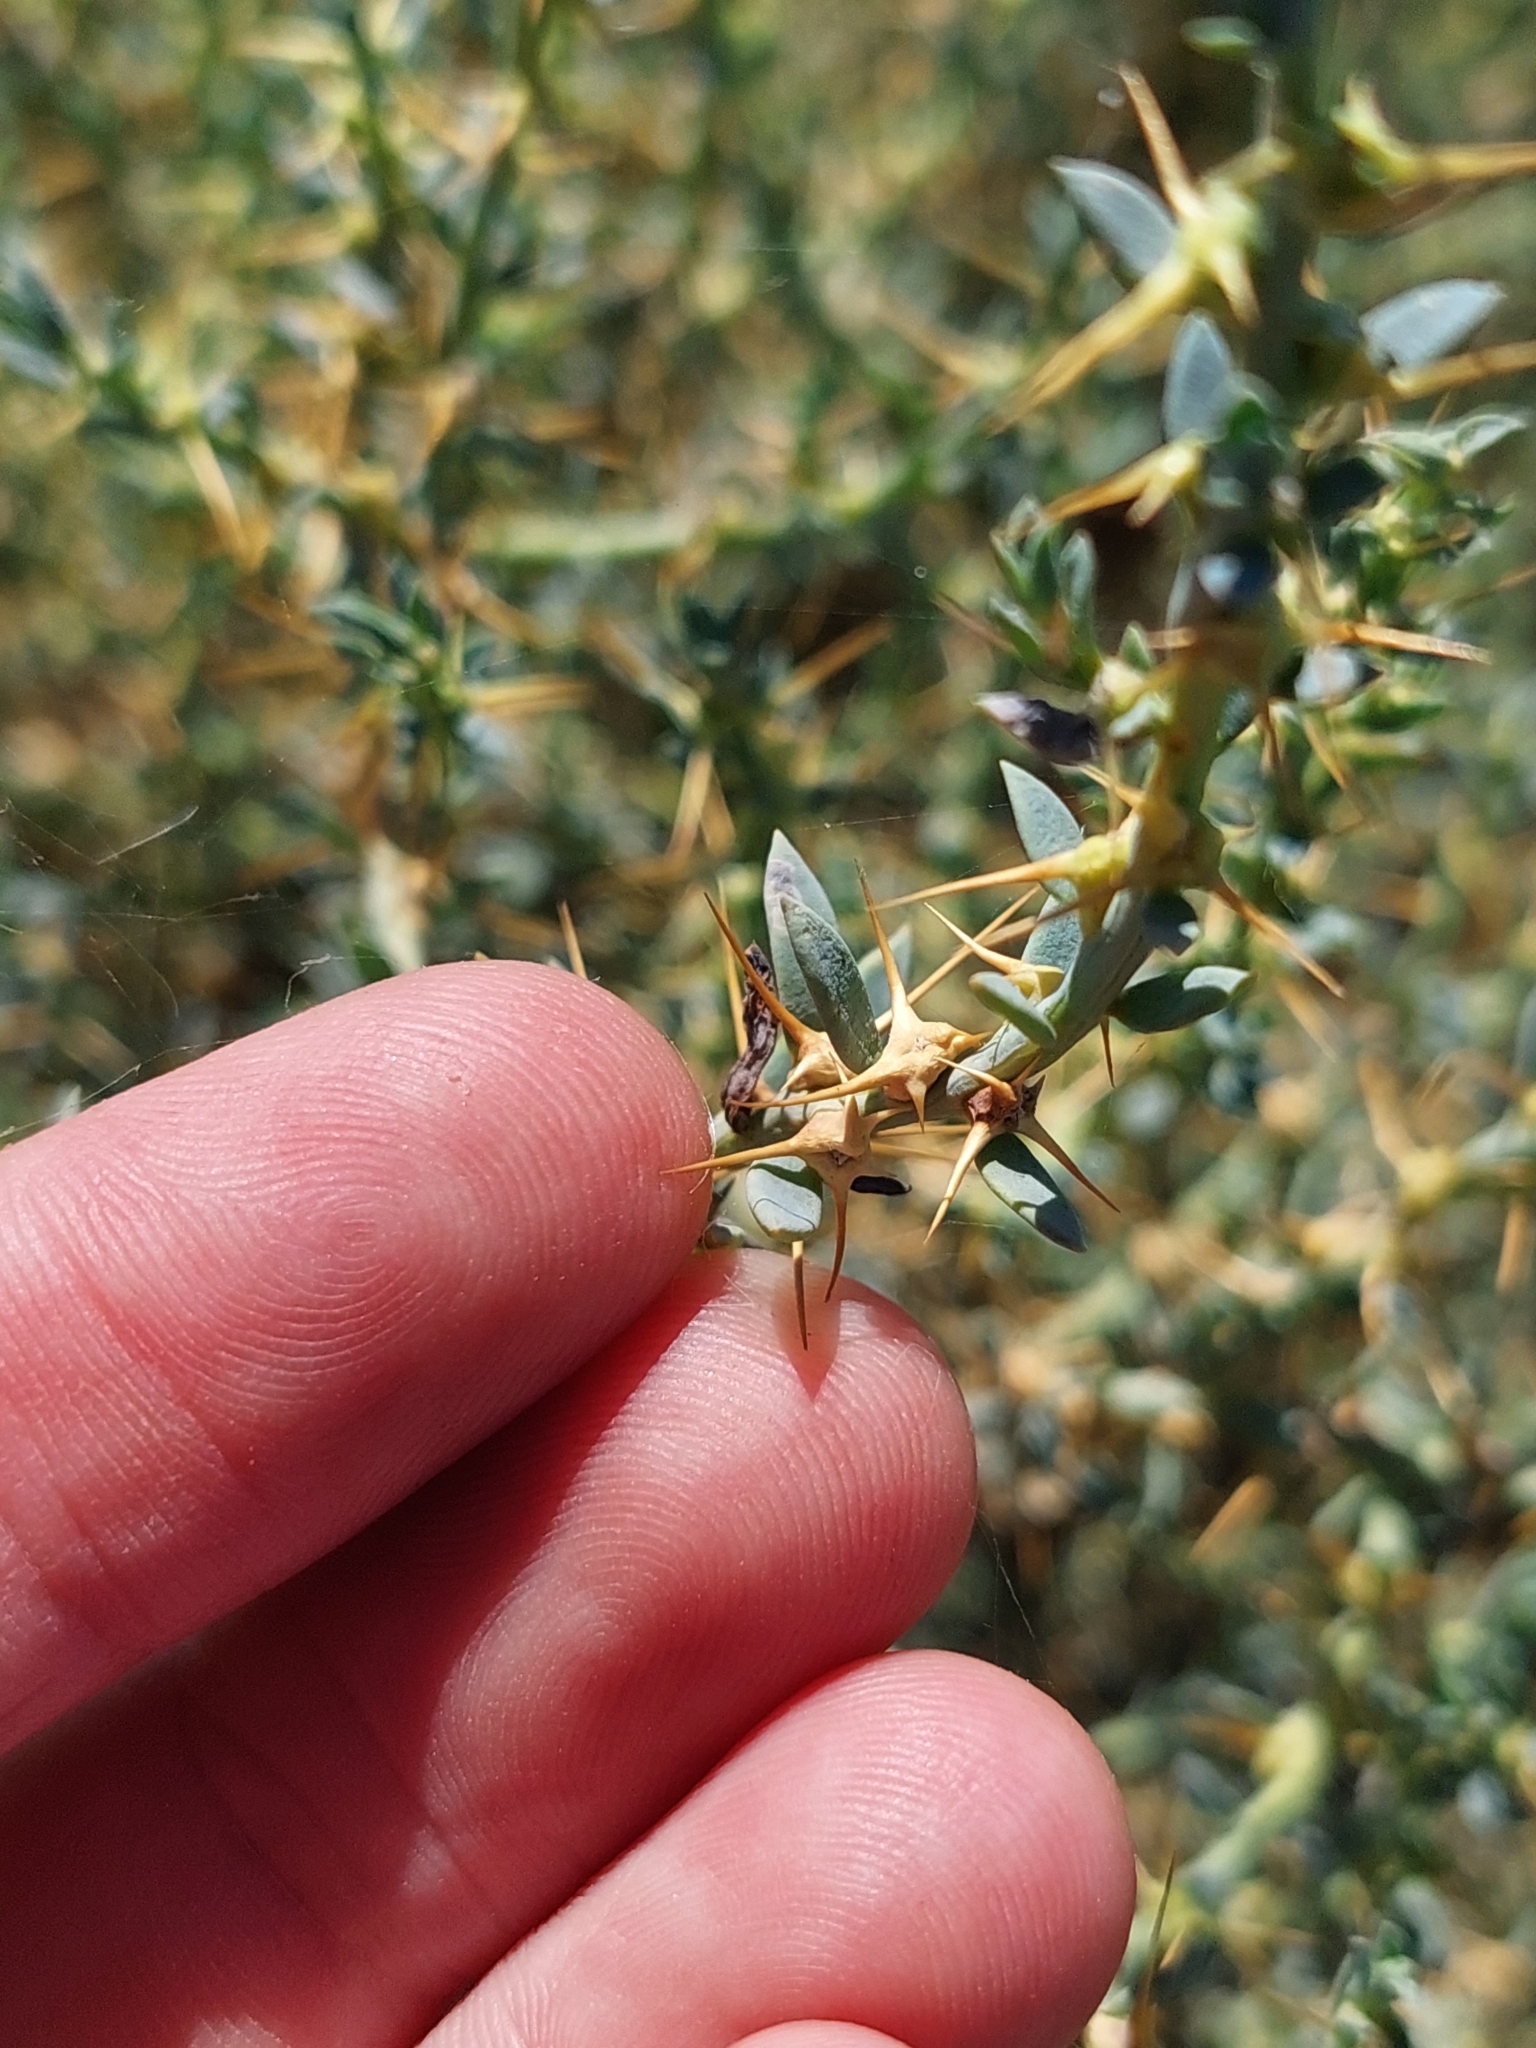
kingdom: Plantae
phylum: Tracheophyta
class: Magnoliopsida
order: Caryophyllales
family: Amaranthaceae
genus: Sclerolaena
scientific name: Sclerolaena muricata
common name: Roly-poly
